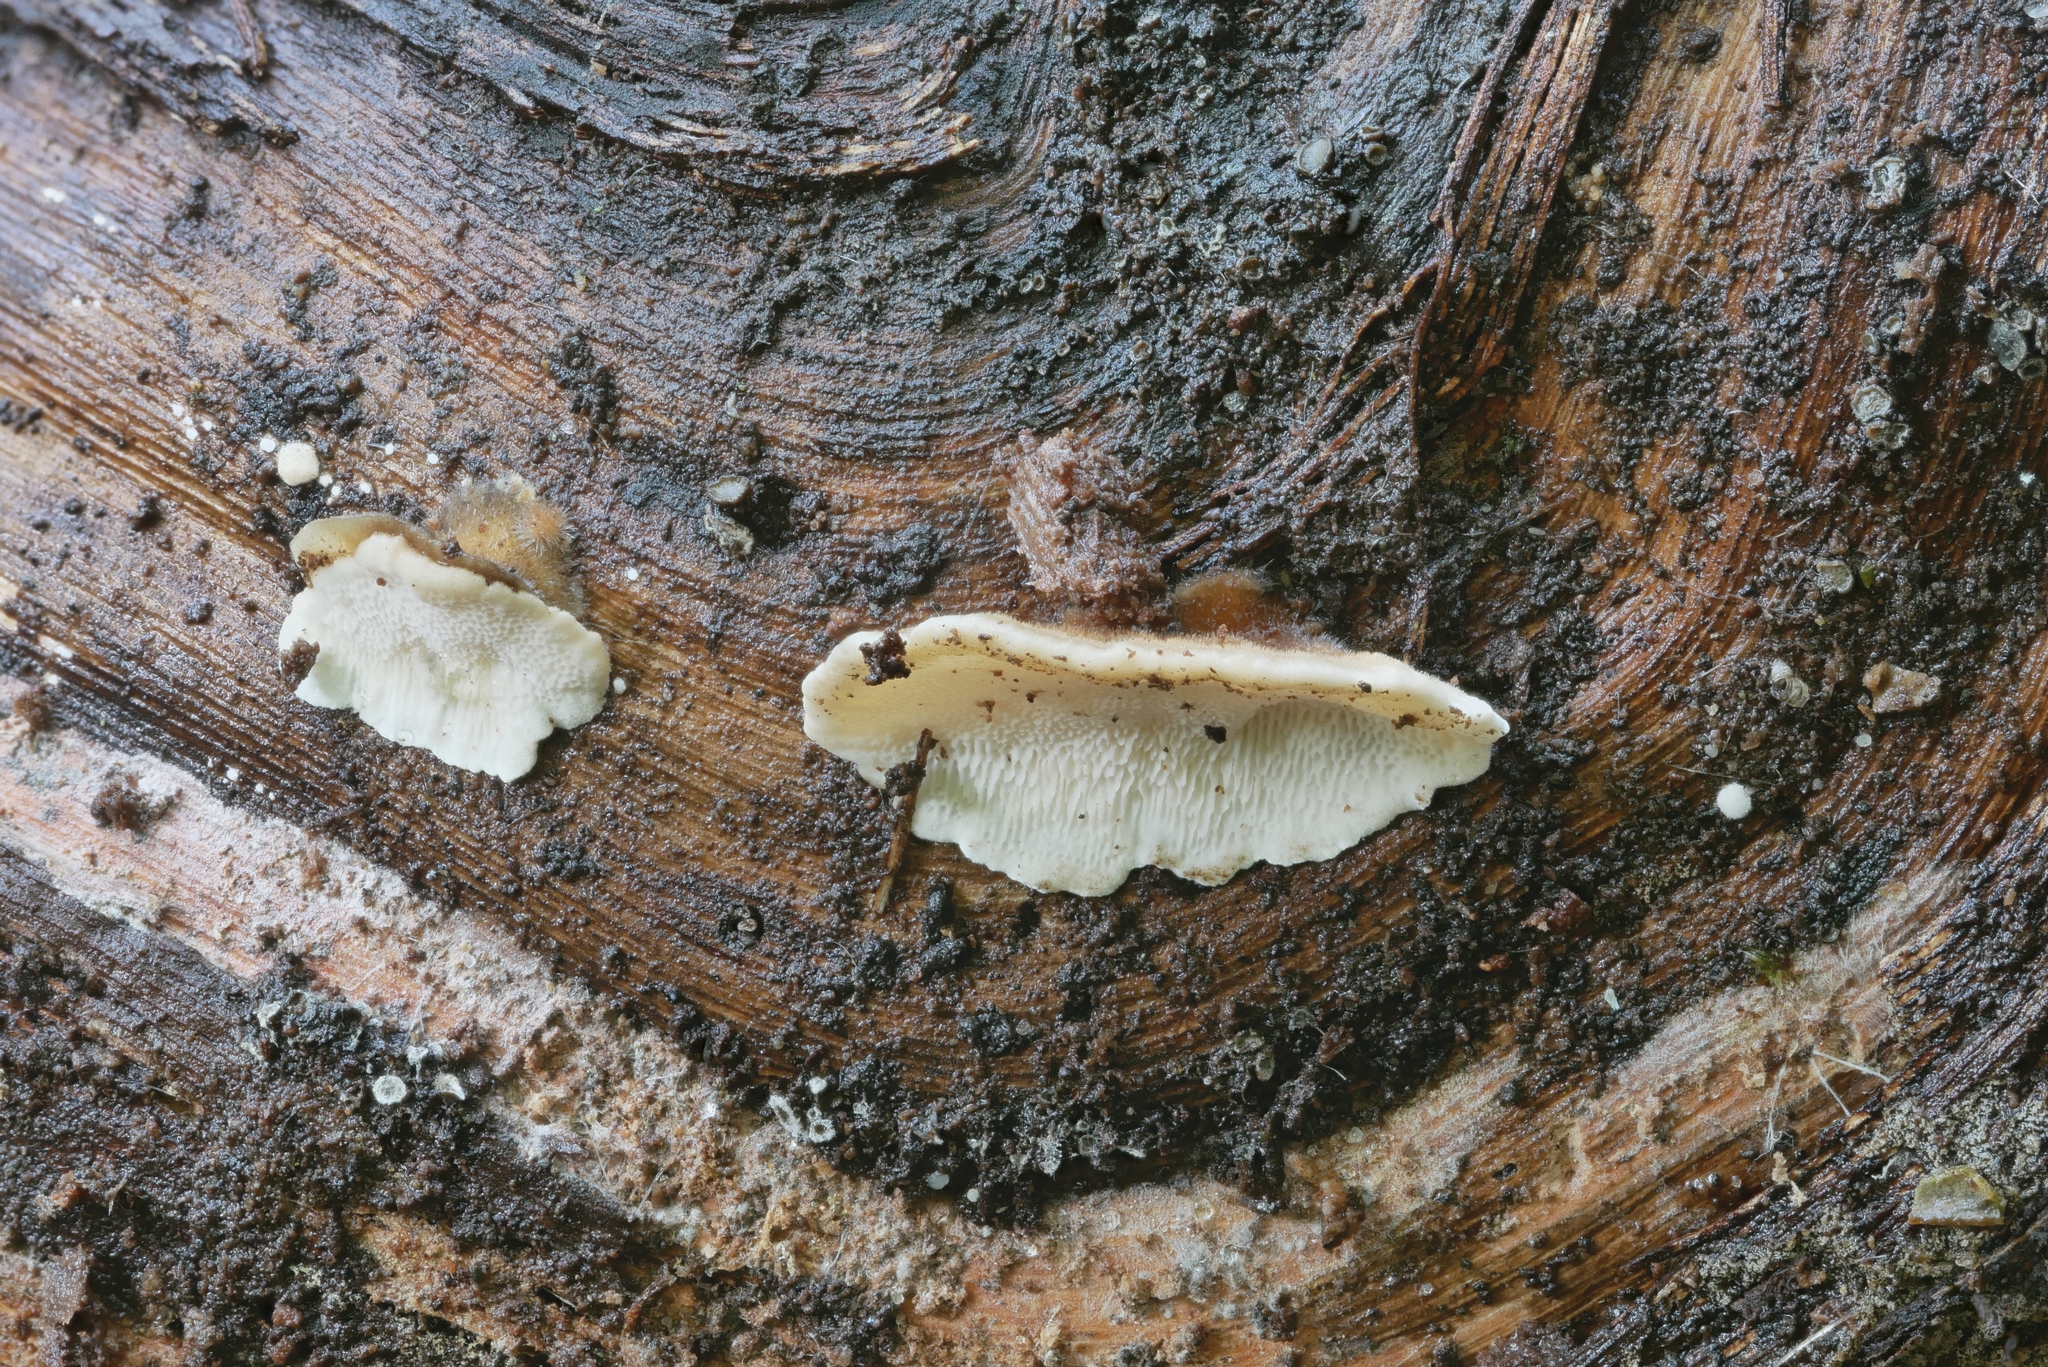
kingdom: Fungi
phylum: Basidiomycota
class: Agaricomycetes
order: Polyporales
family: Polyporaceae
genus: Trametes
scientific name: Trametes versicolor
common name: Turkeytail
